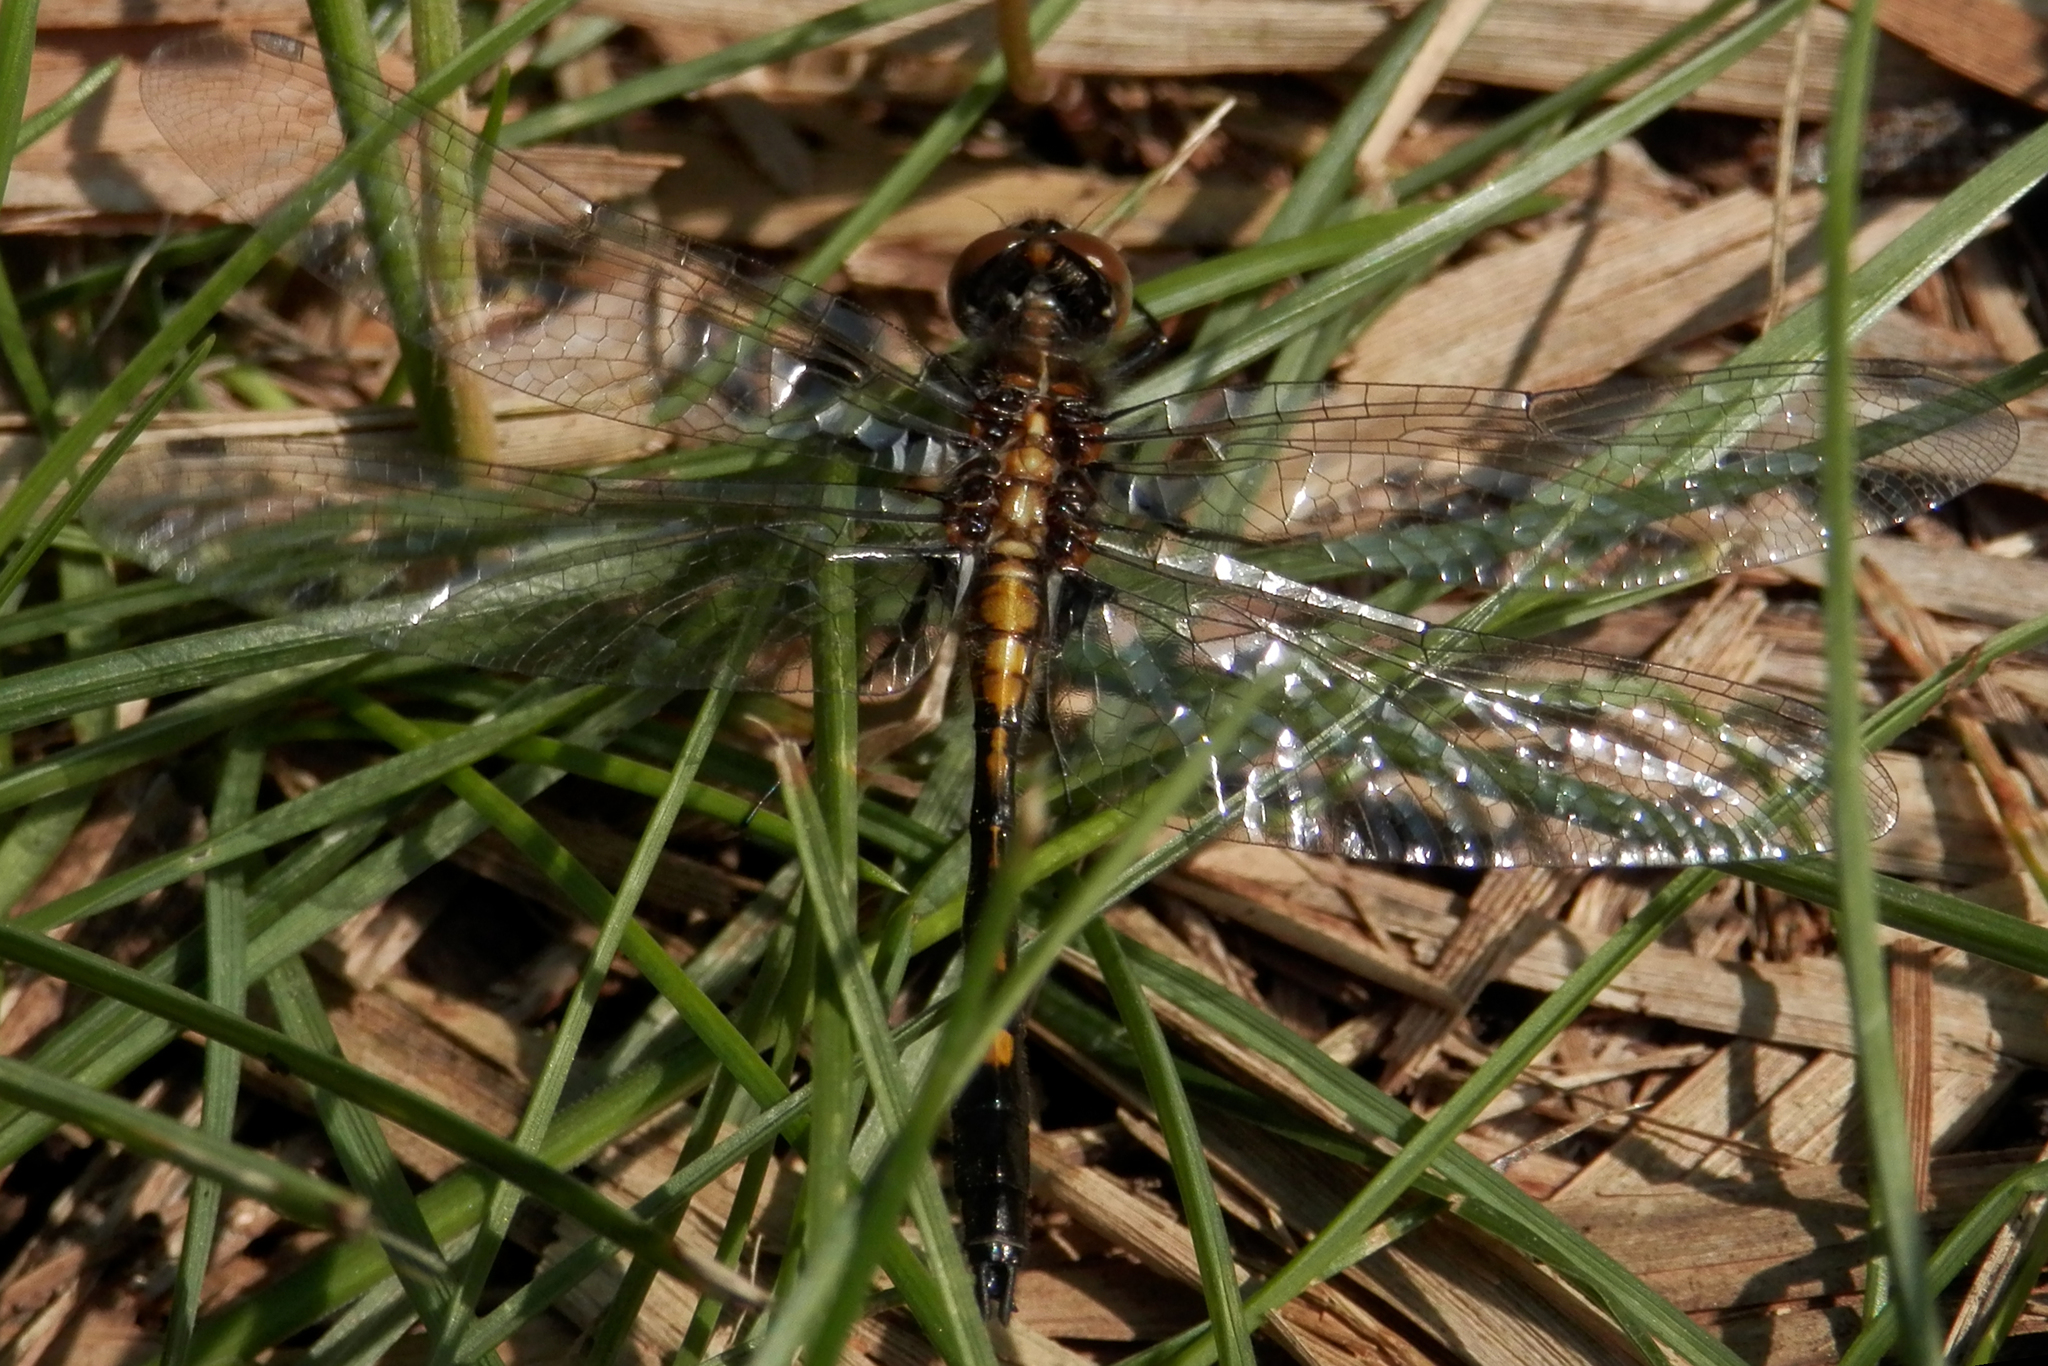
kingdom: Animalia
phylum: Arthropoda
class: Insecta
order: Odonata
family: Libellulidae
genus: Leucorrhinia
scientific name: Leucorrhinia intacta
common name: Dot-tailed whiteface
